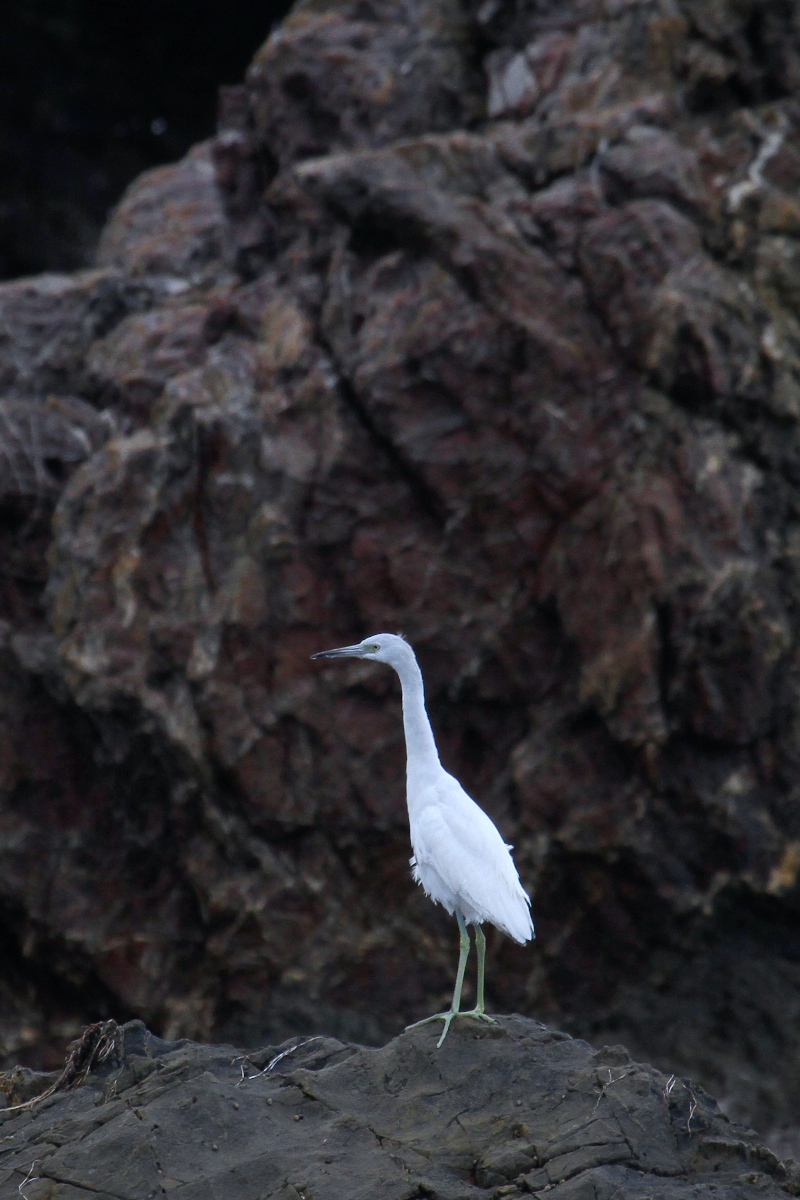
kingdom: Animalia
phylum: Chordata
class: Aves
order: Pelecaniformes
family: Ardeidae
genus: Egretta
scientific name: Egretta caerulea
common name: Little blue heron
